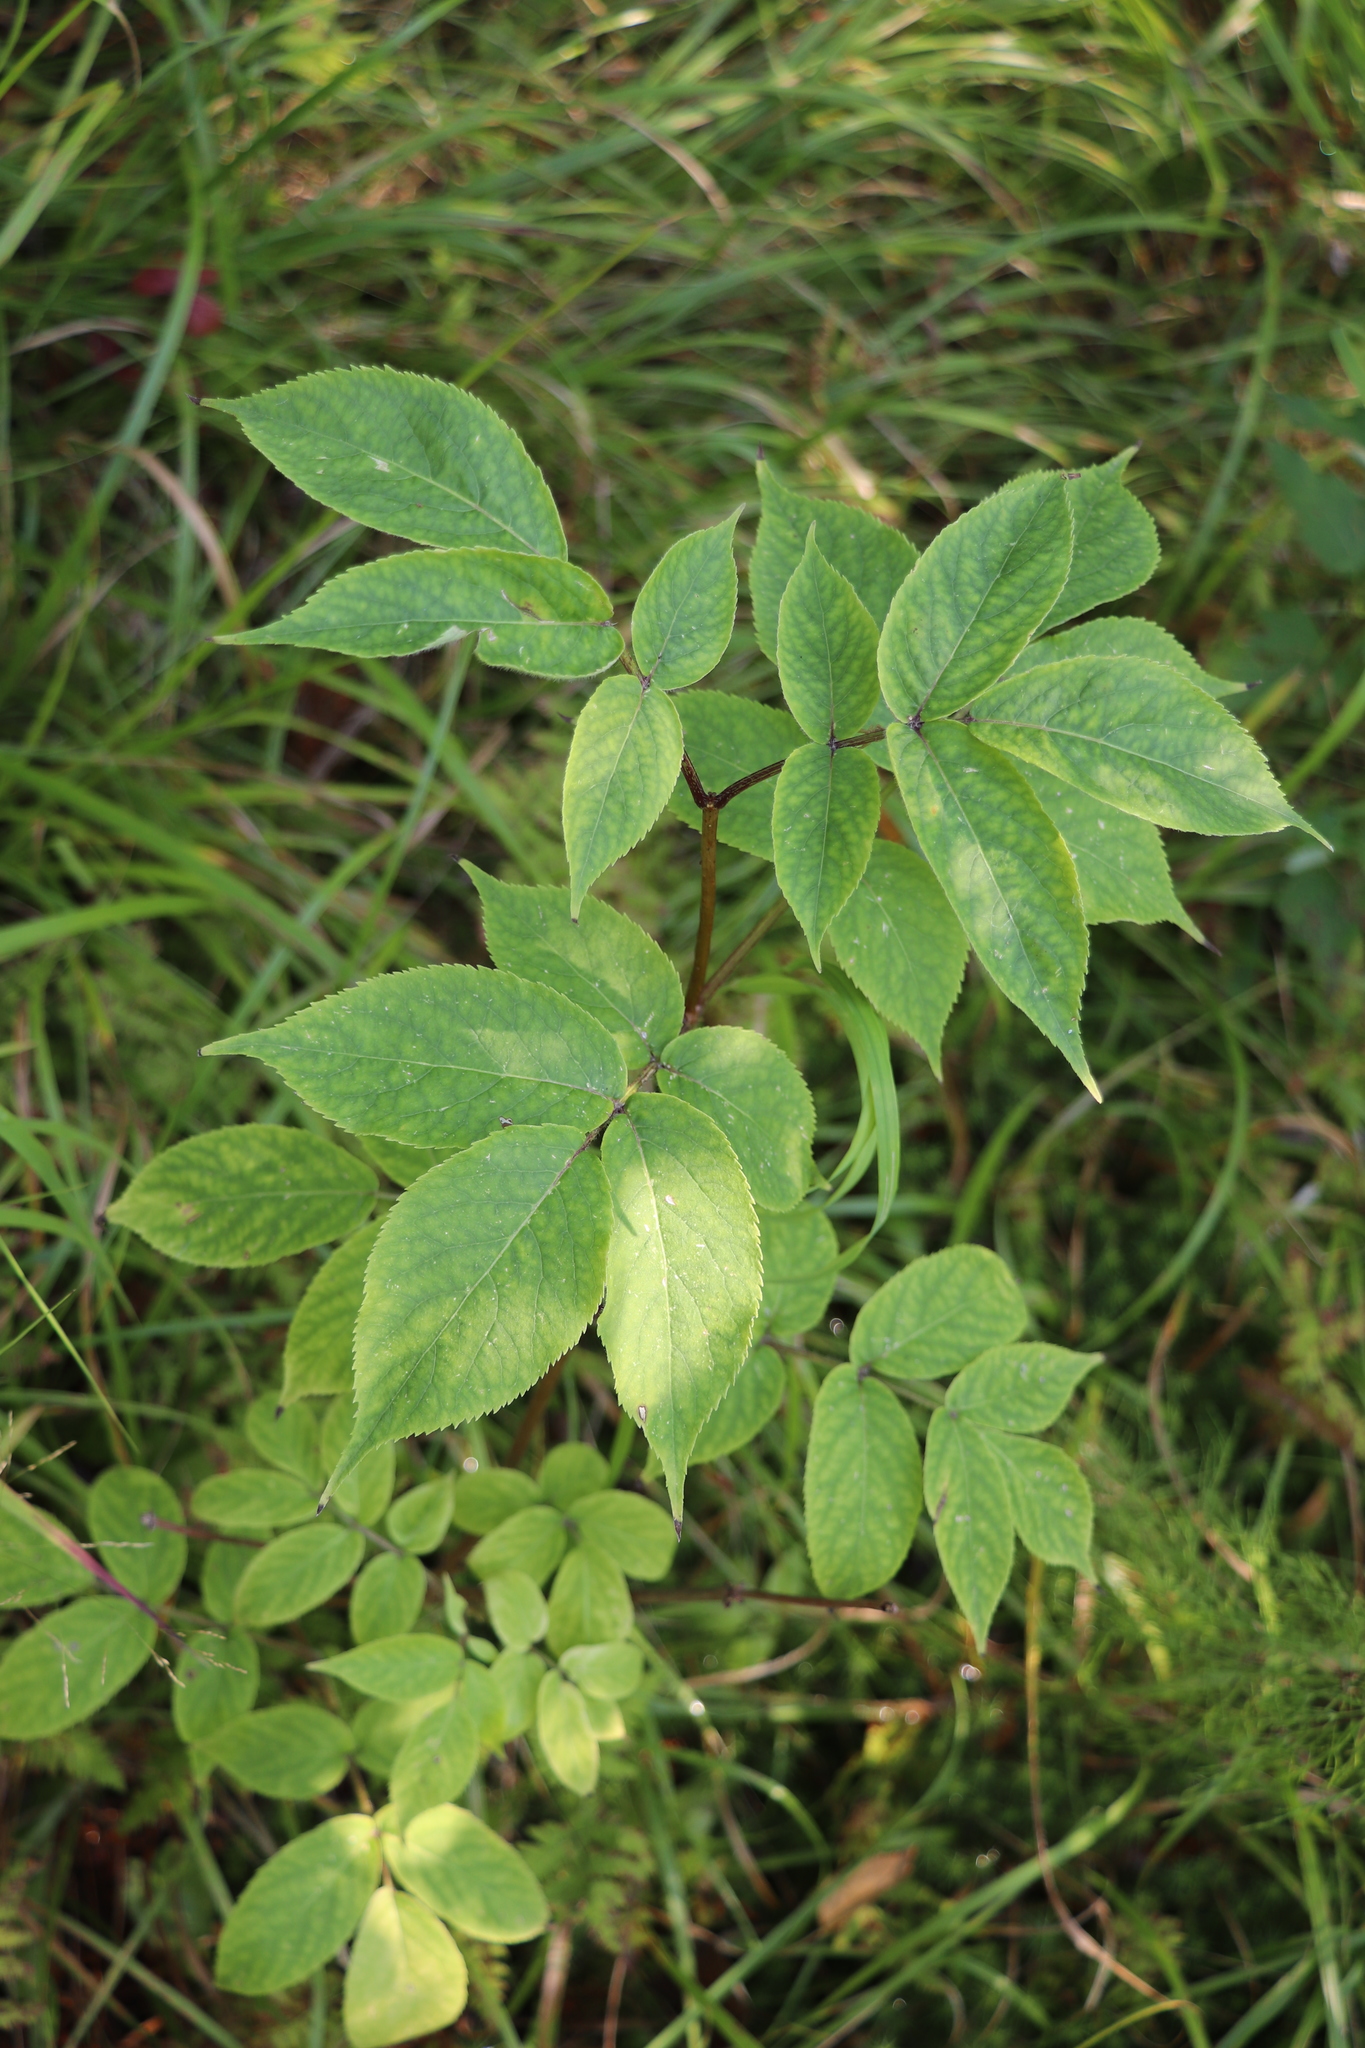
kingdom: Plantae
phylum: Tracheophyta
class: Magnoliopsida
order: Dipsacales
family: Viburnaceae
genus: Sambucus
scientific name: Sambucus sibirica
